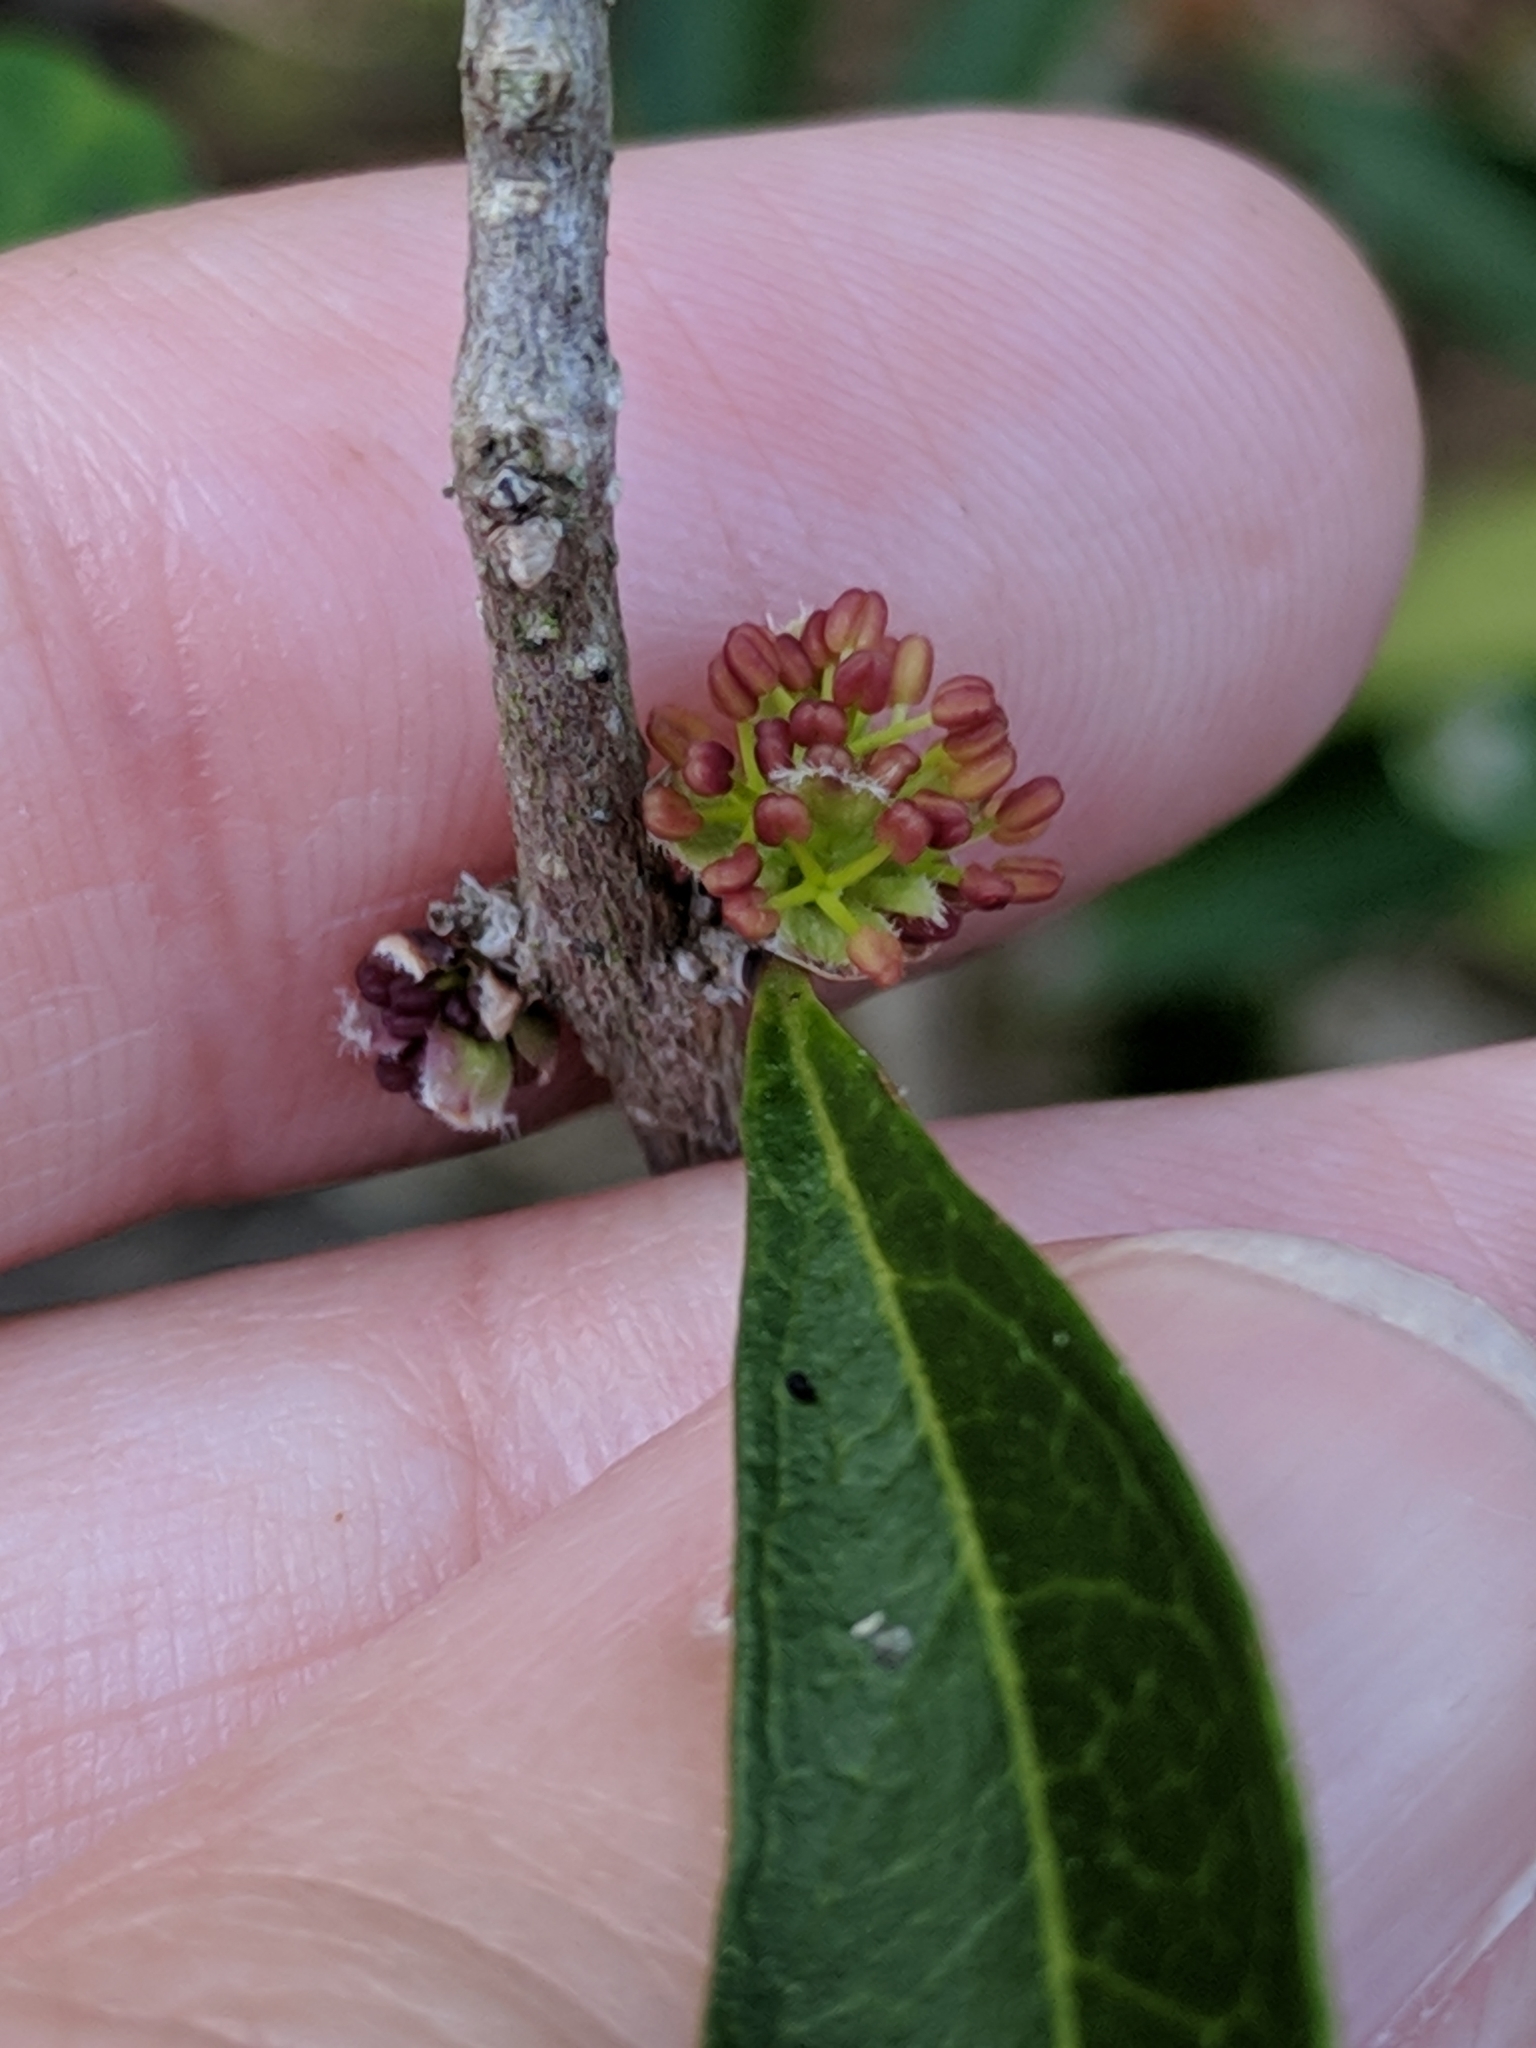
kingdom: Plantae
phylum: Tracheophyta
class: Magnoliopsida
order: Lamiales
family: Oleaceae
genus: Forestiera
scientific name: Forestiera segregata
